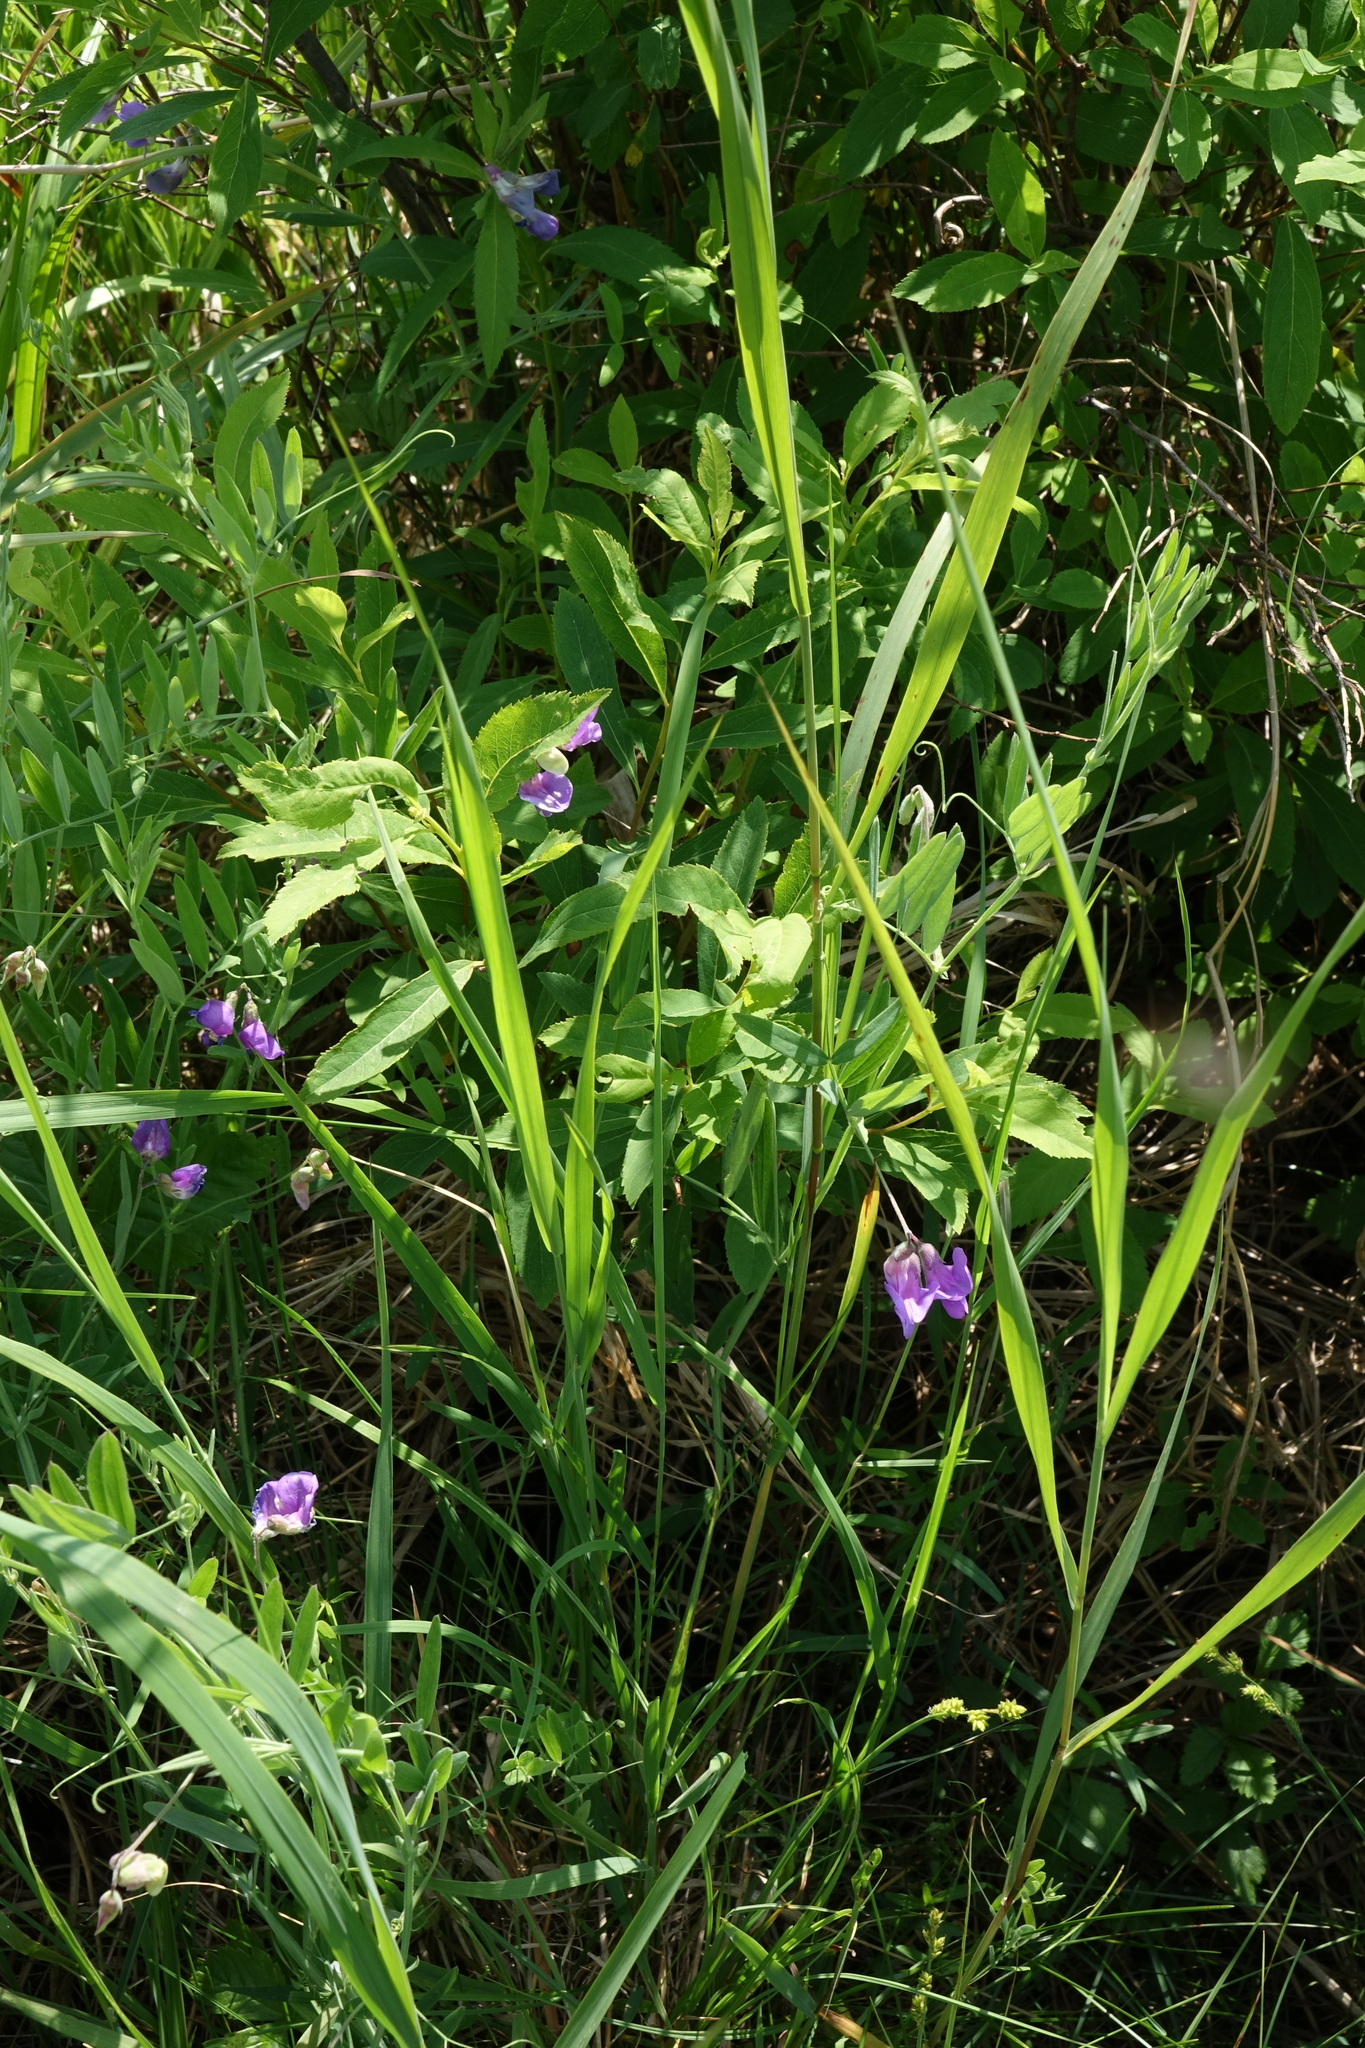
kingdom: Plantae
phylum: Tracheophyta
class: Magnoliopsida
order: Fabales
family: Fabaceae
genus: Lathyrus
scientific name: Lathyrus palustris
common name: Marsh pea
